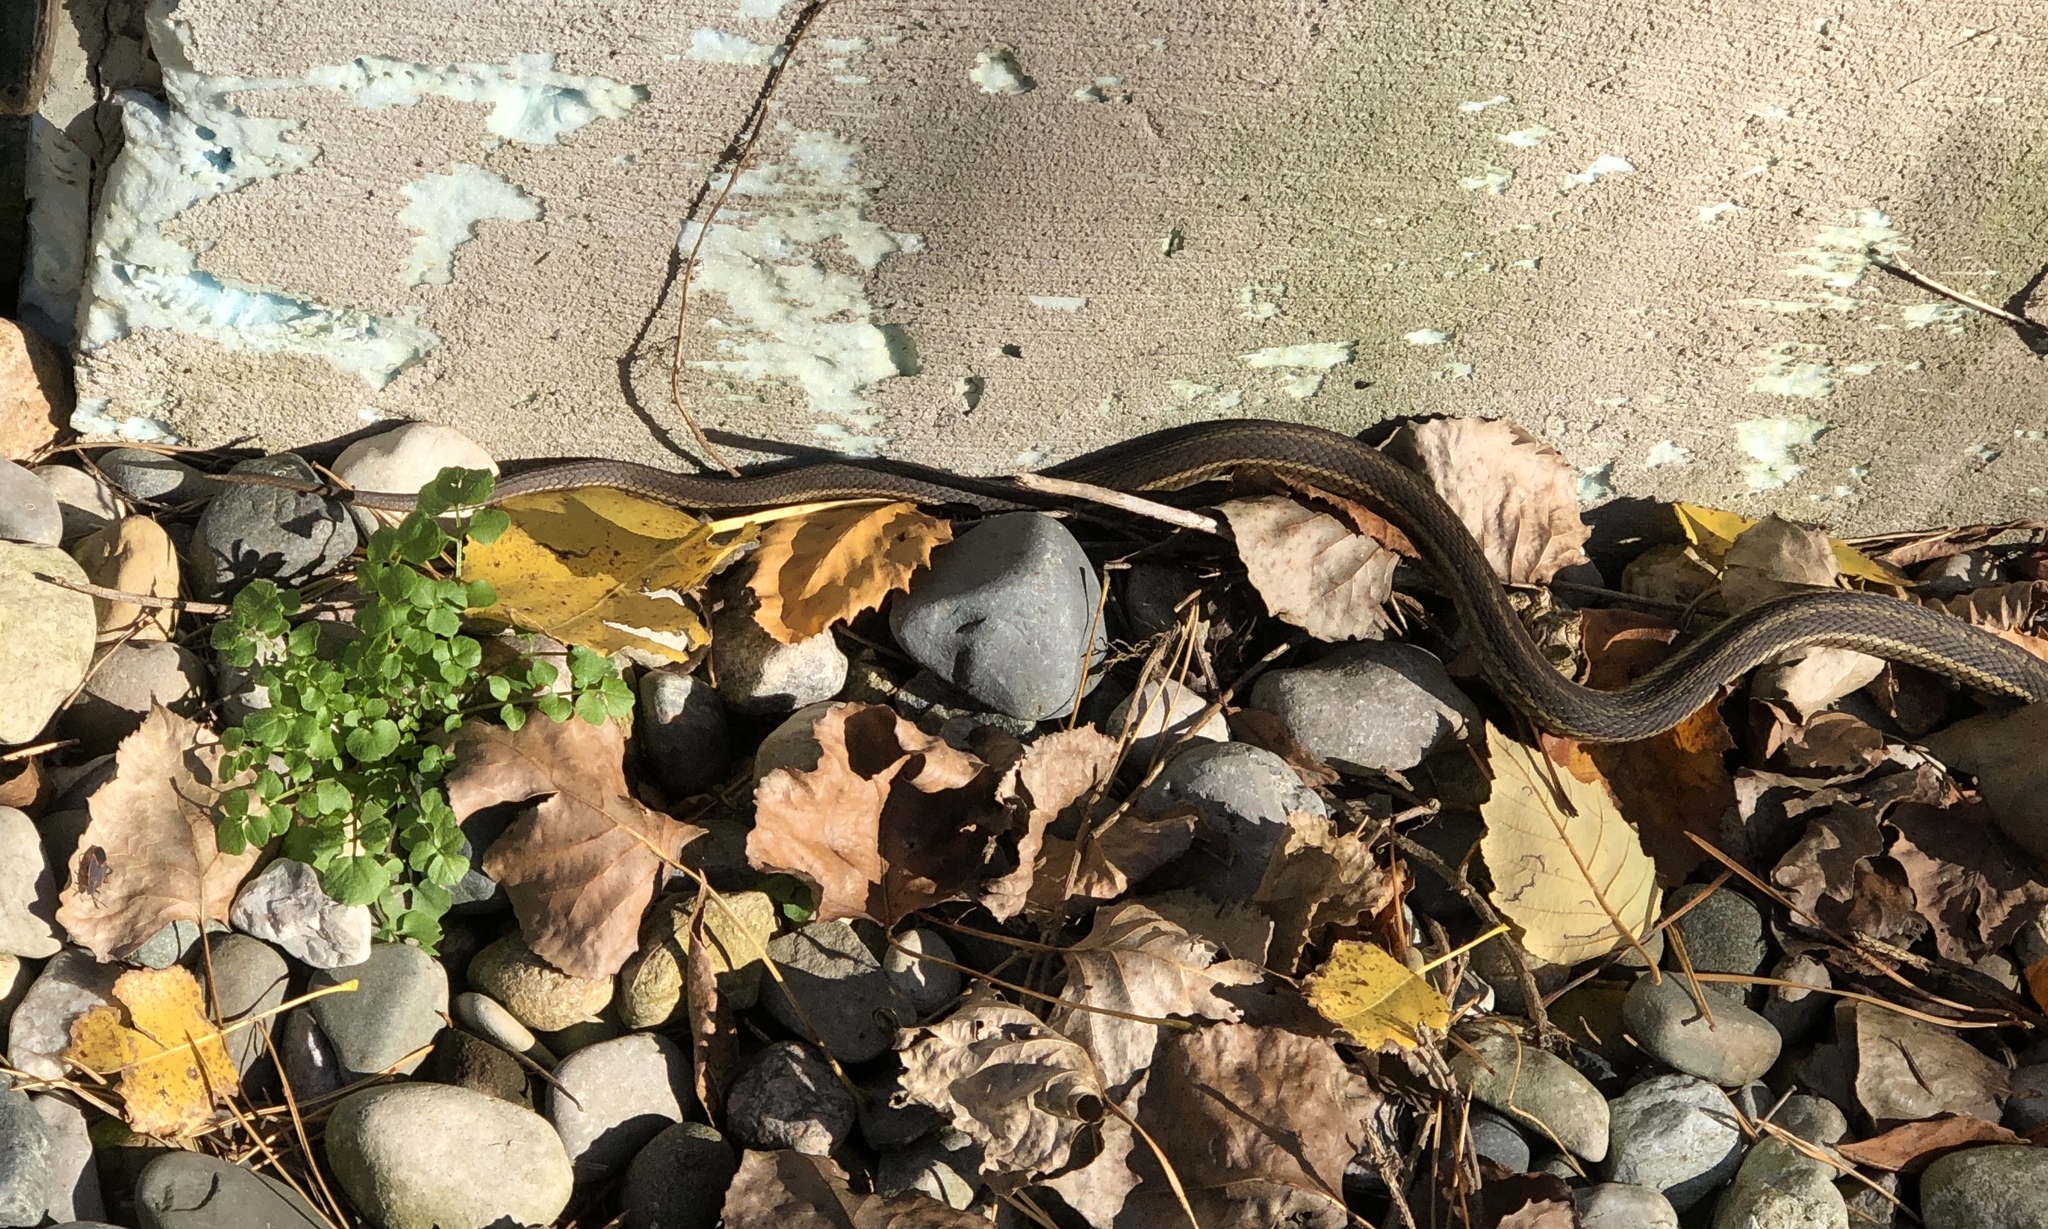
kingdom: Animalia
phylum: Chordata
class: Squamata
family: Colubridae
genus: Thamnophis
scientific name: Thamnophis sirtalis
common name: Common garter snake
